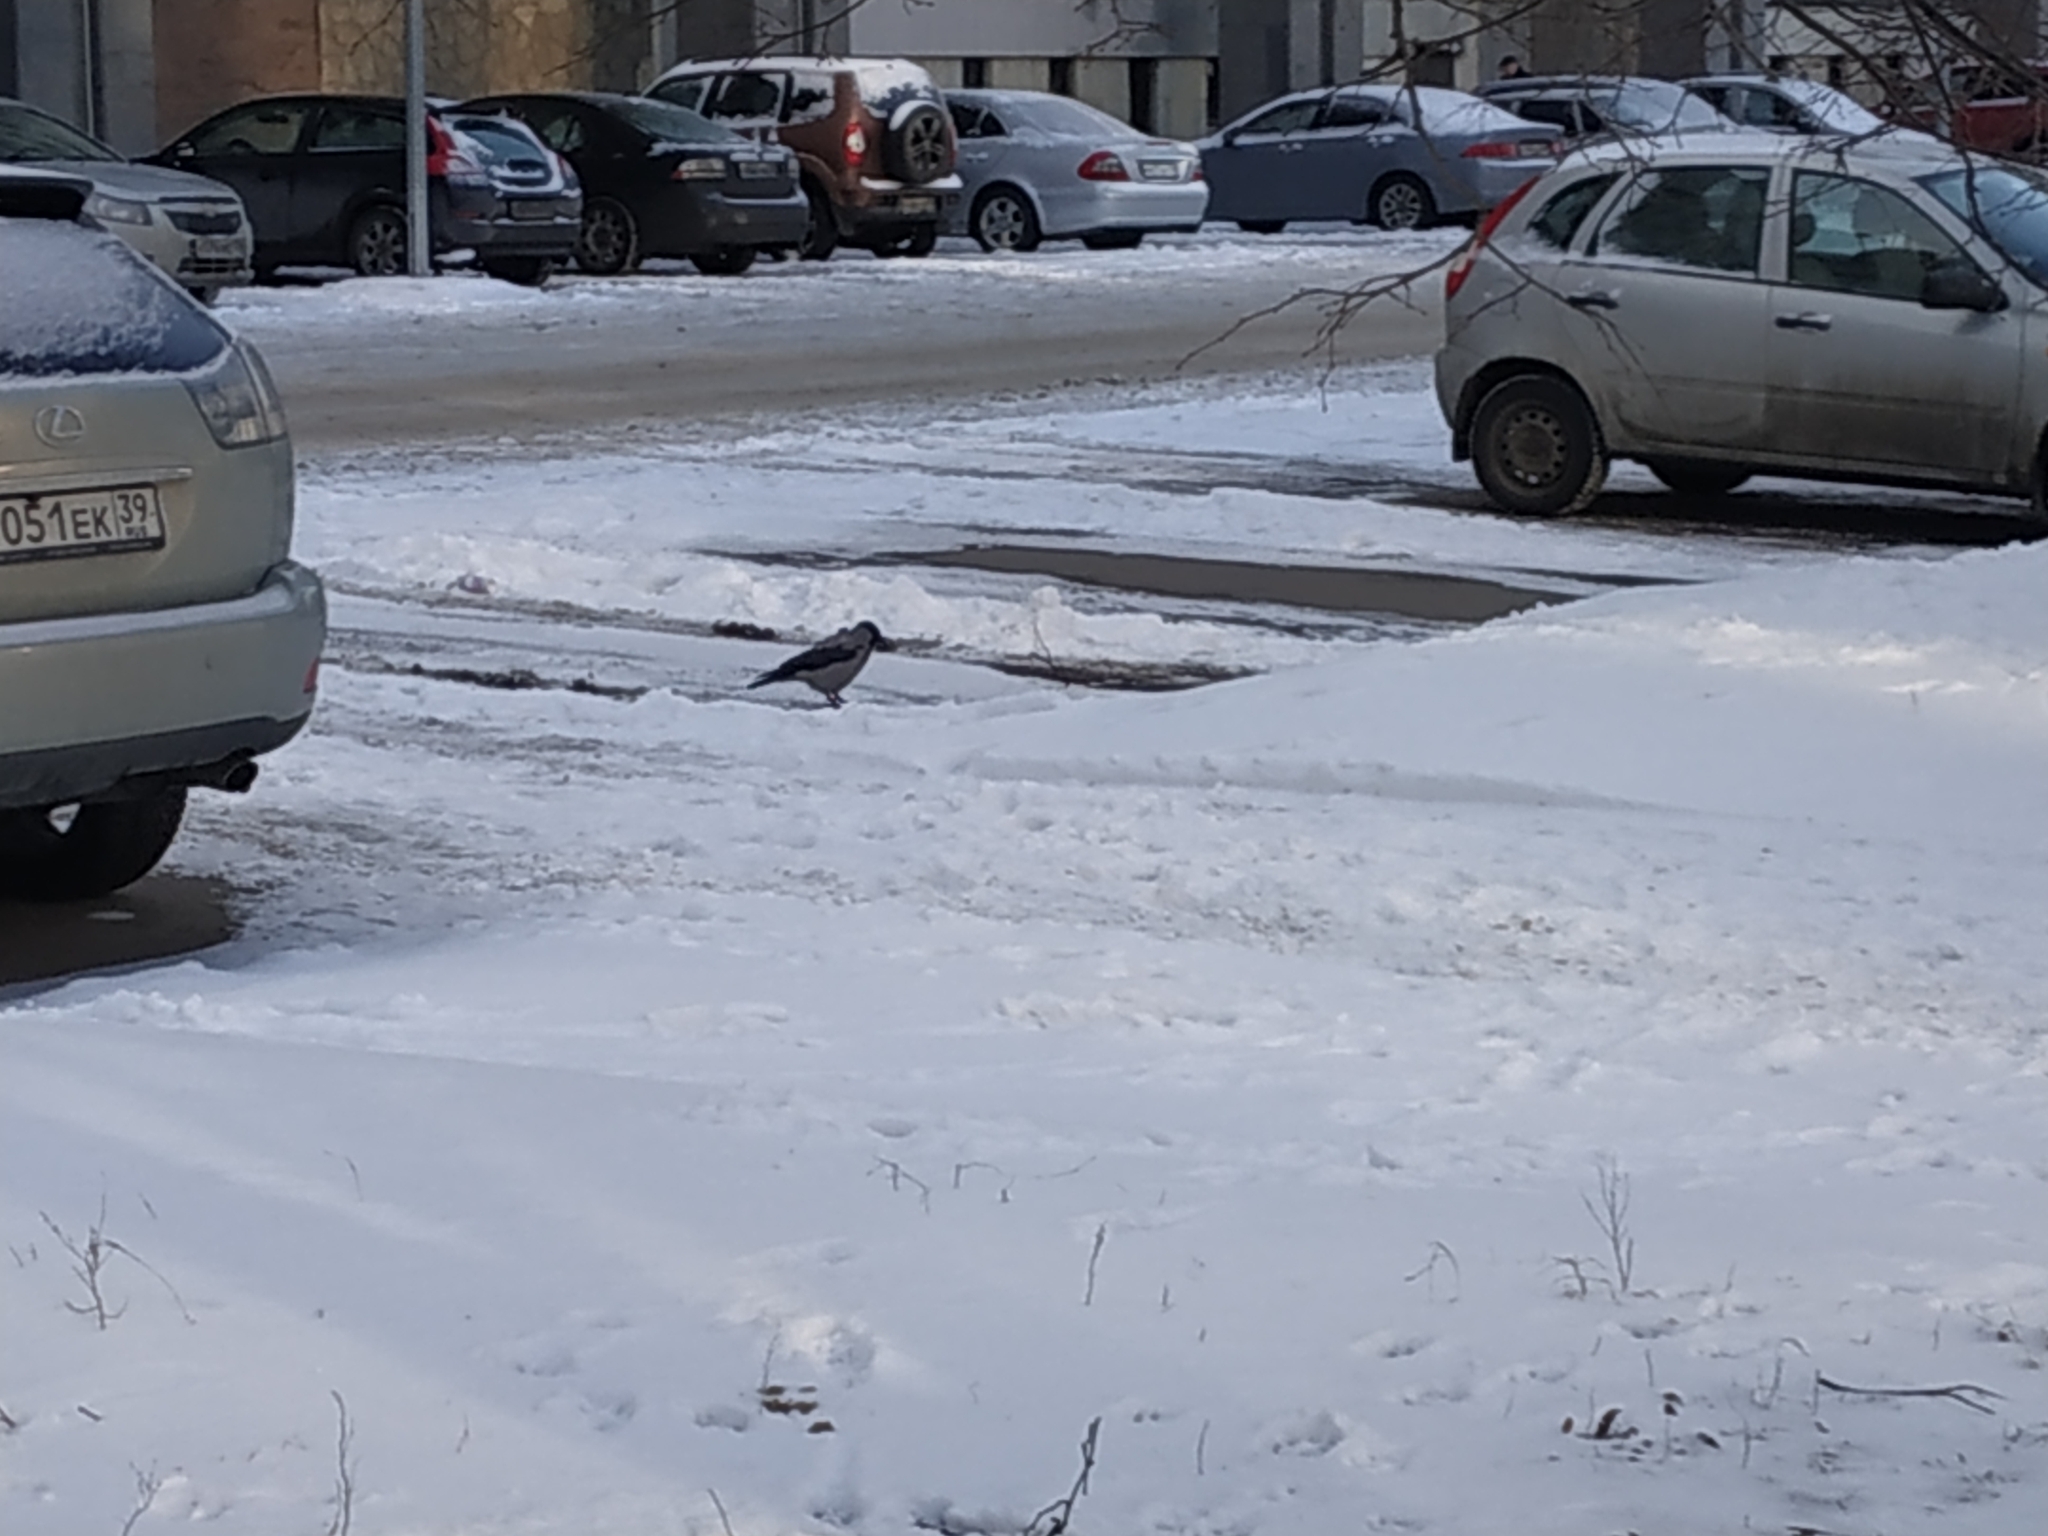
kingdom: Animalia
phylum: Chordata
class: Aves
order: Passeriformes
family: Corvidae
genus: Corvus
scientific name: Corvus cornix
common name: Hooded crow
